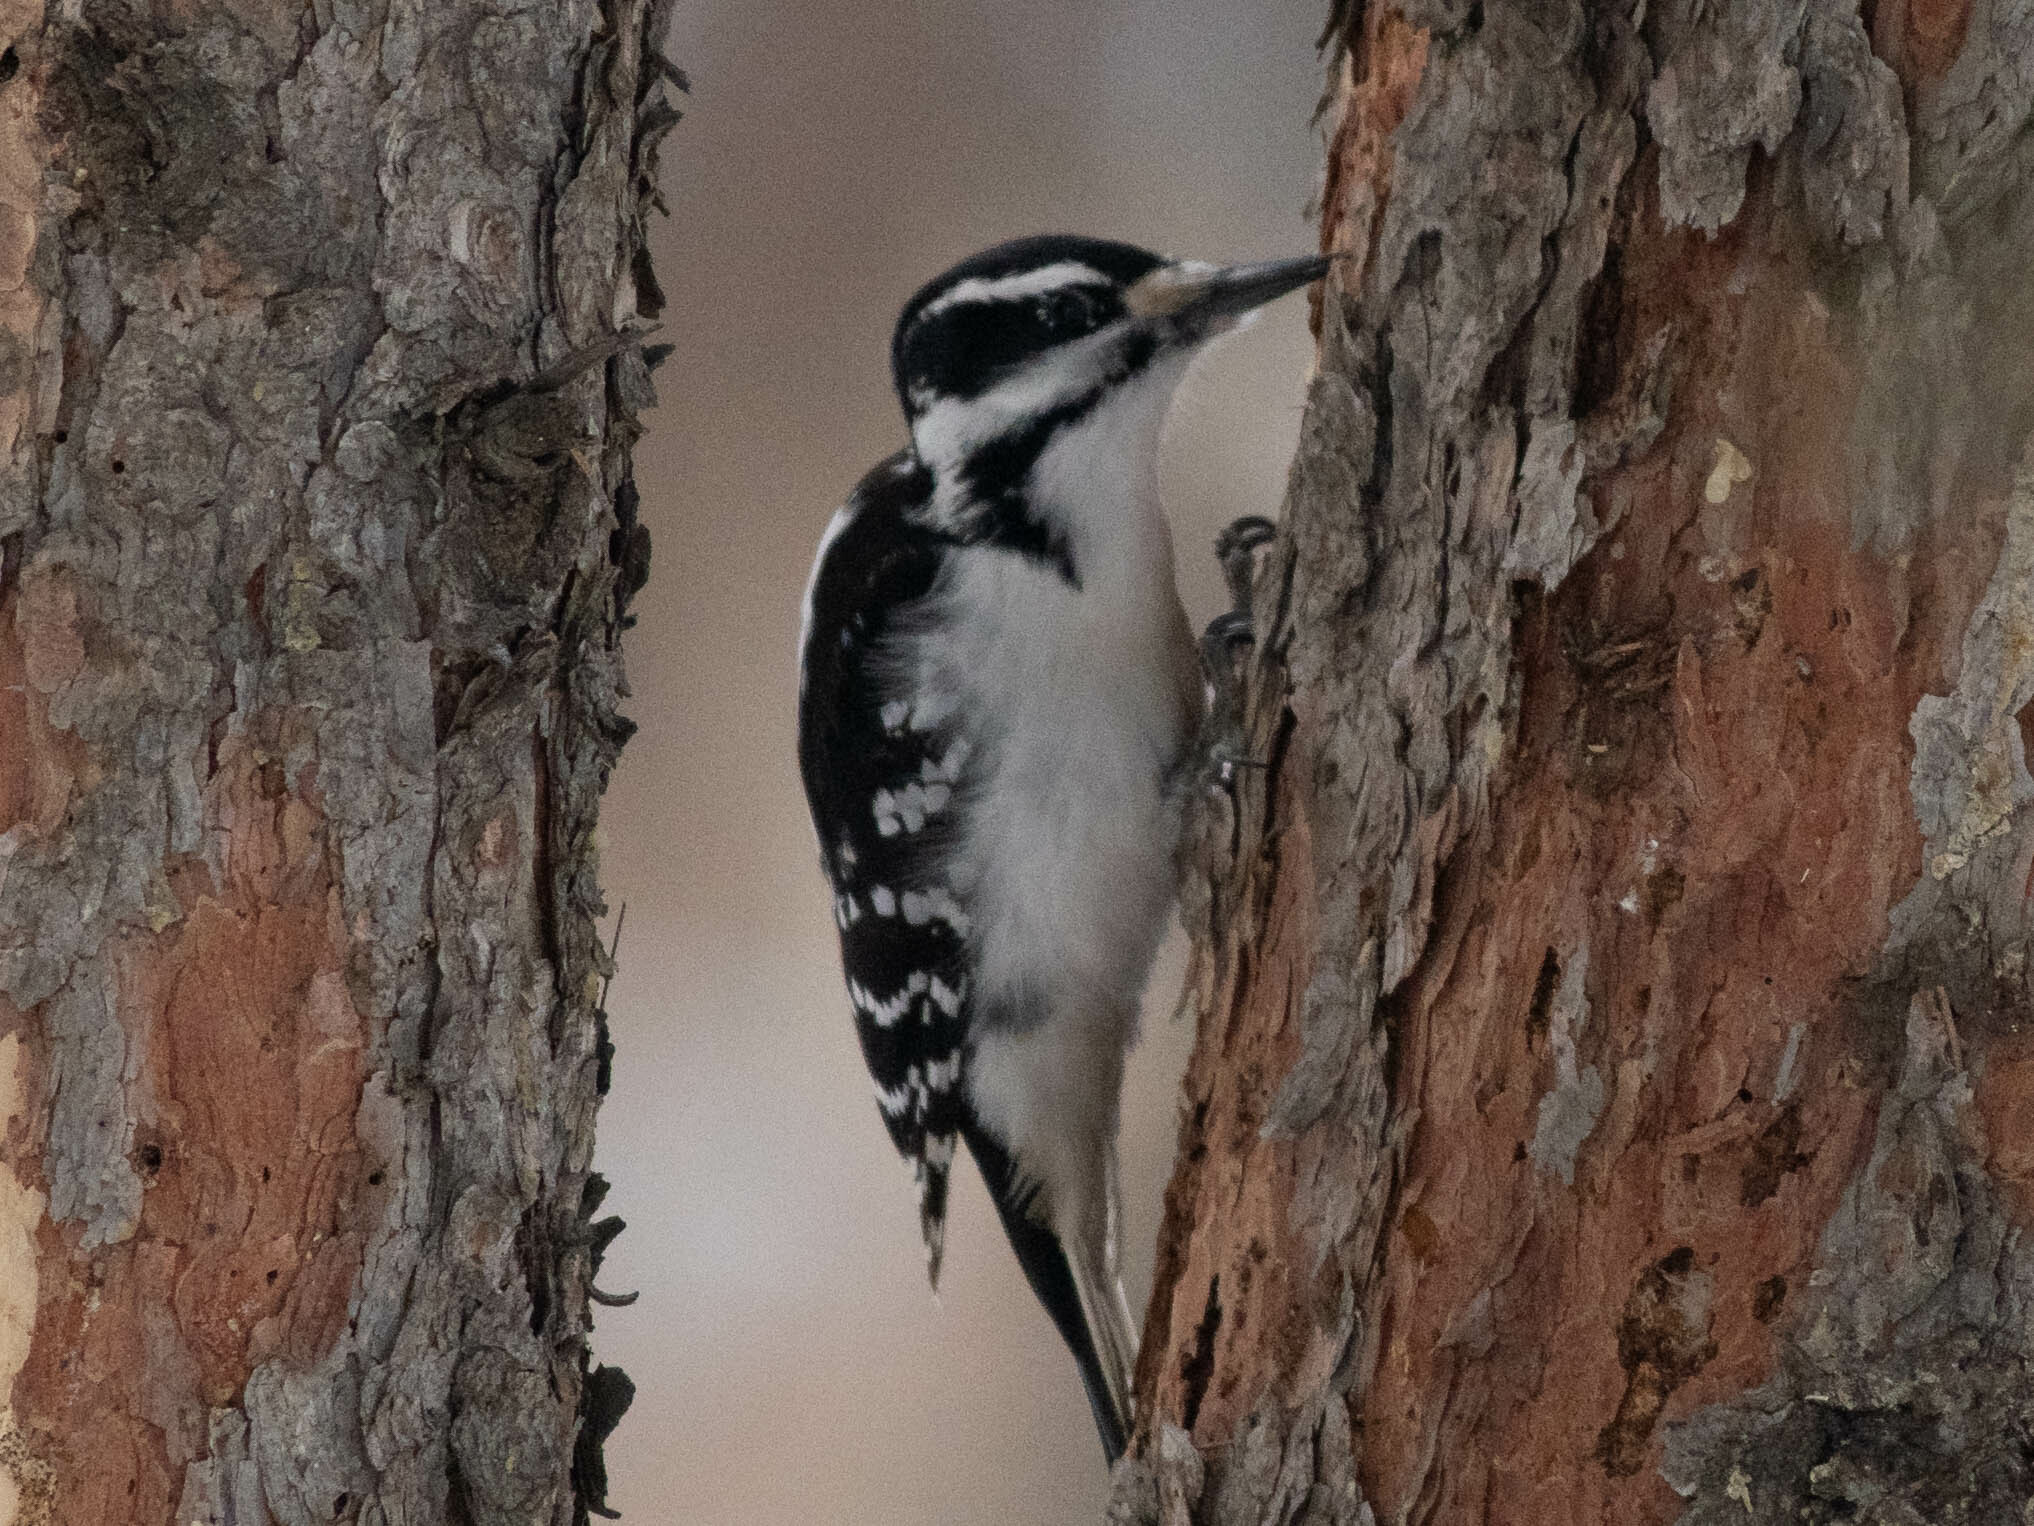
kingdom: Animalia
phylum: Chordata
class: Aves
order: Piciformes
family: Picidae
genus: Leuconotopicus
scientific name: Leuconotopicus villosus
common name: Hairy woodpecker
